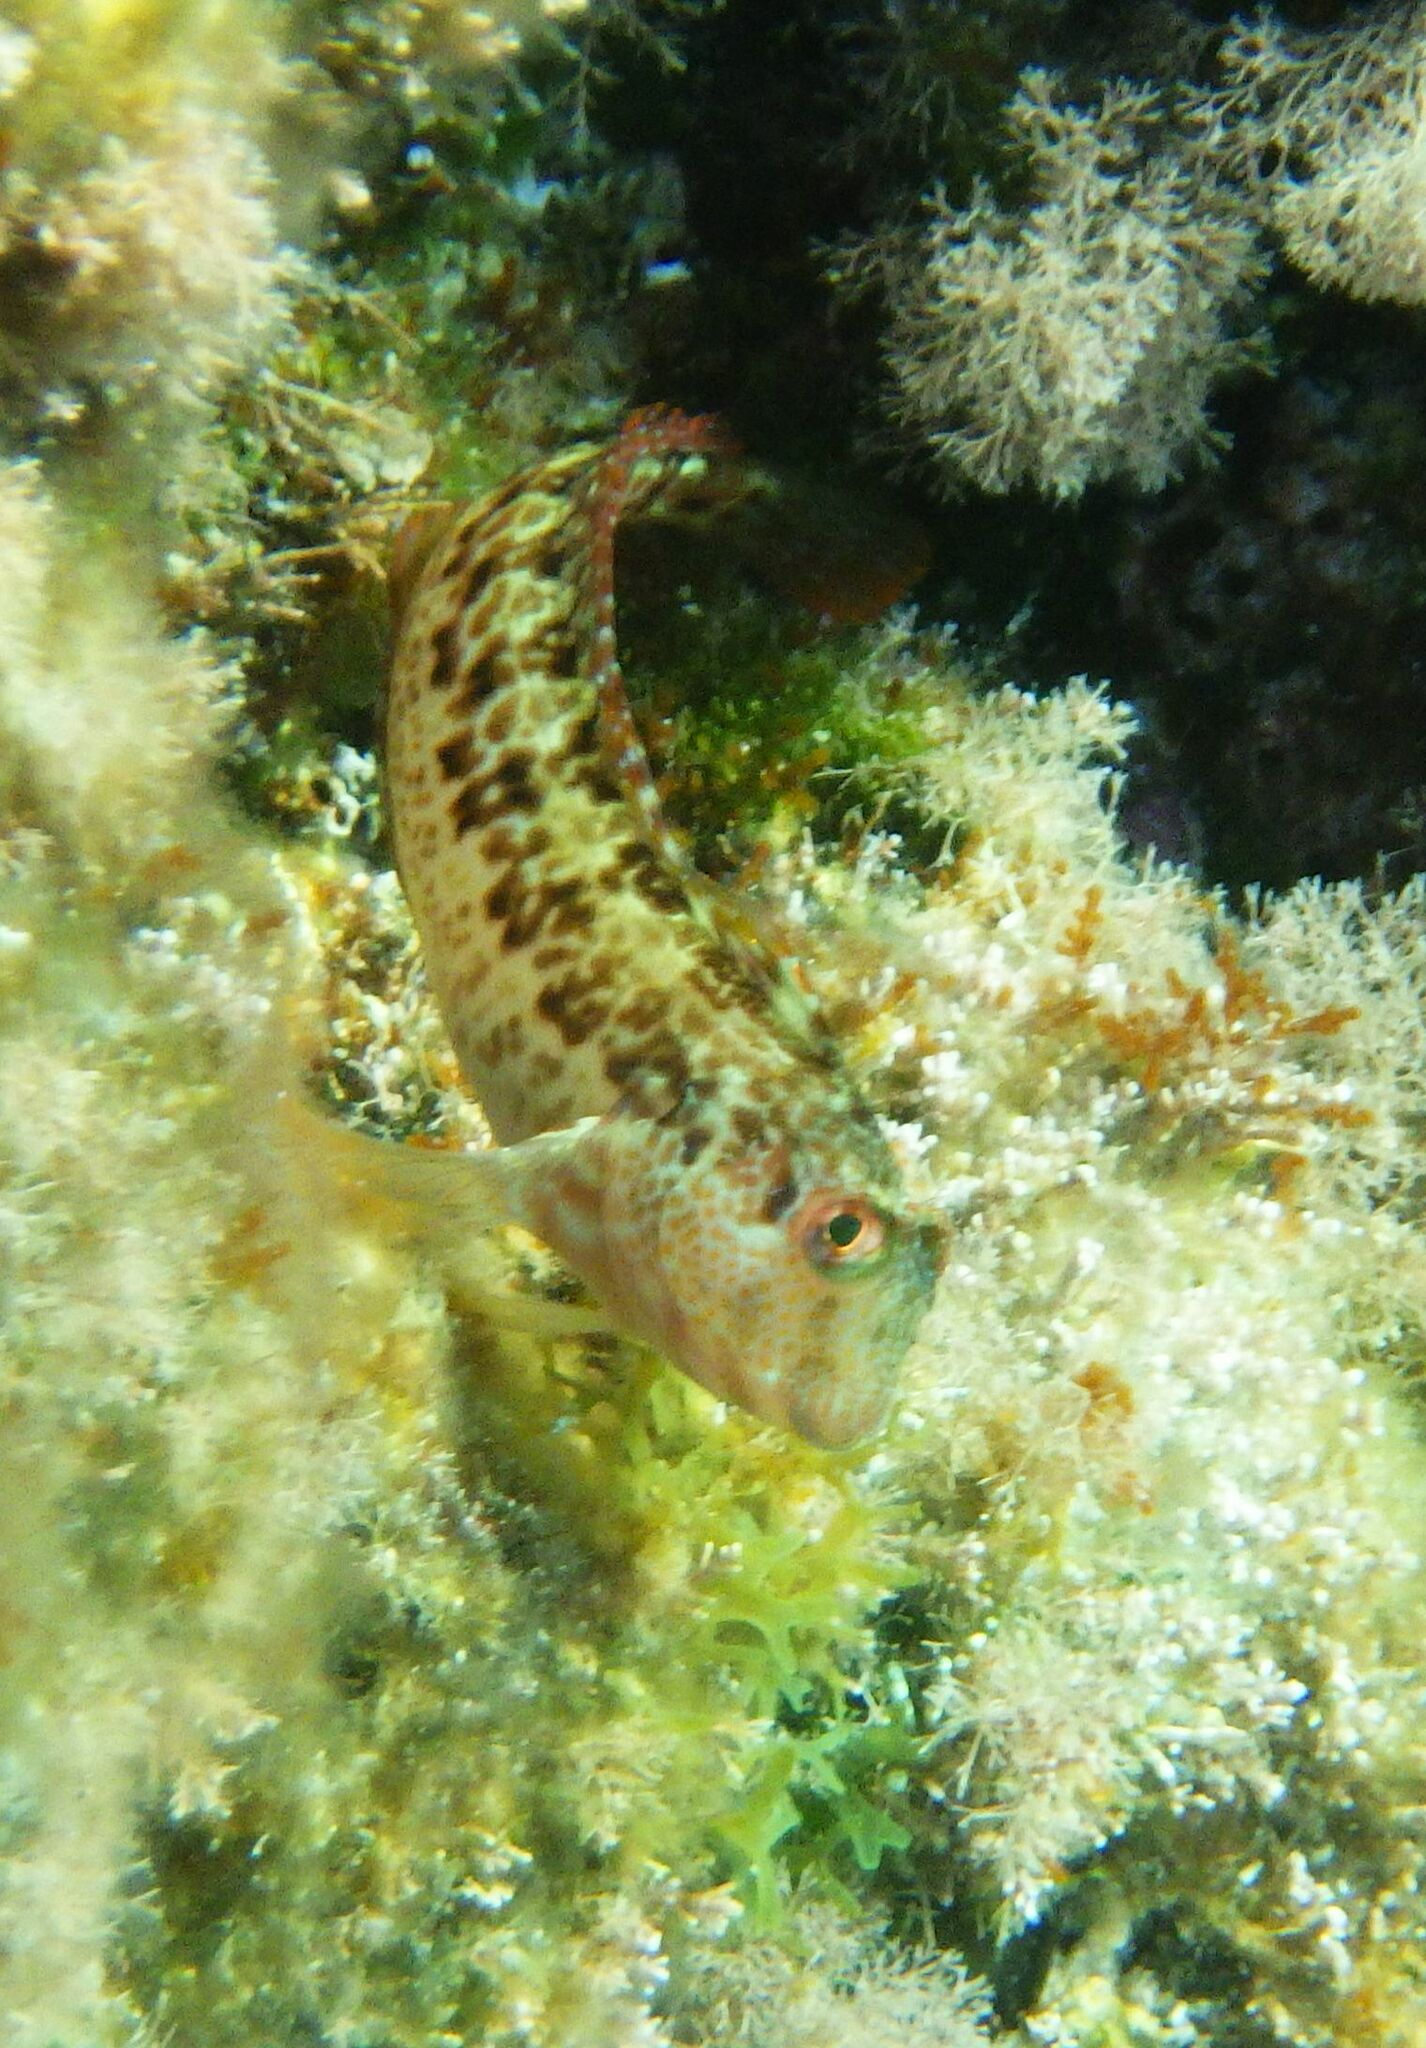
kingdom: Animalia
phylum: Chordata
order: Perciformes
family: Blenniidae
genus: Parablennius
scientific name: Parablennius pilicornis
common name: Ringneck blenny
